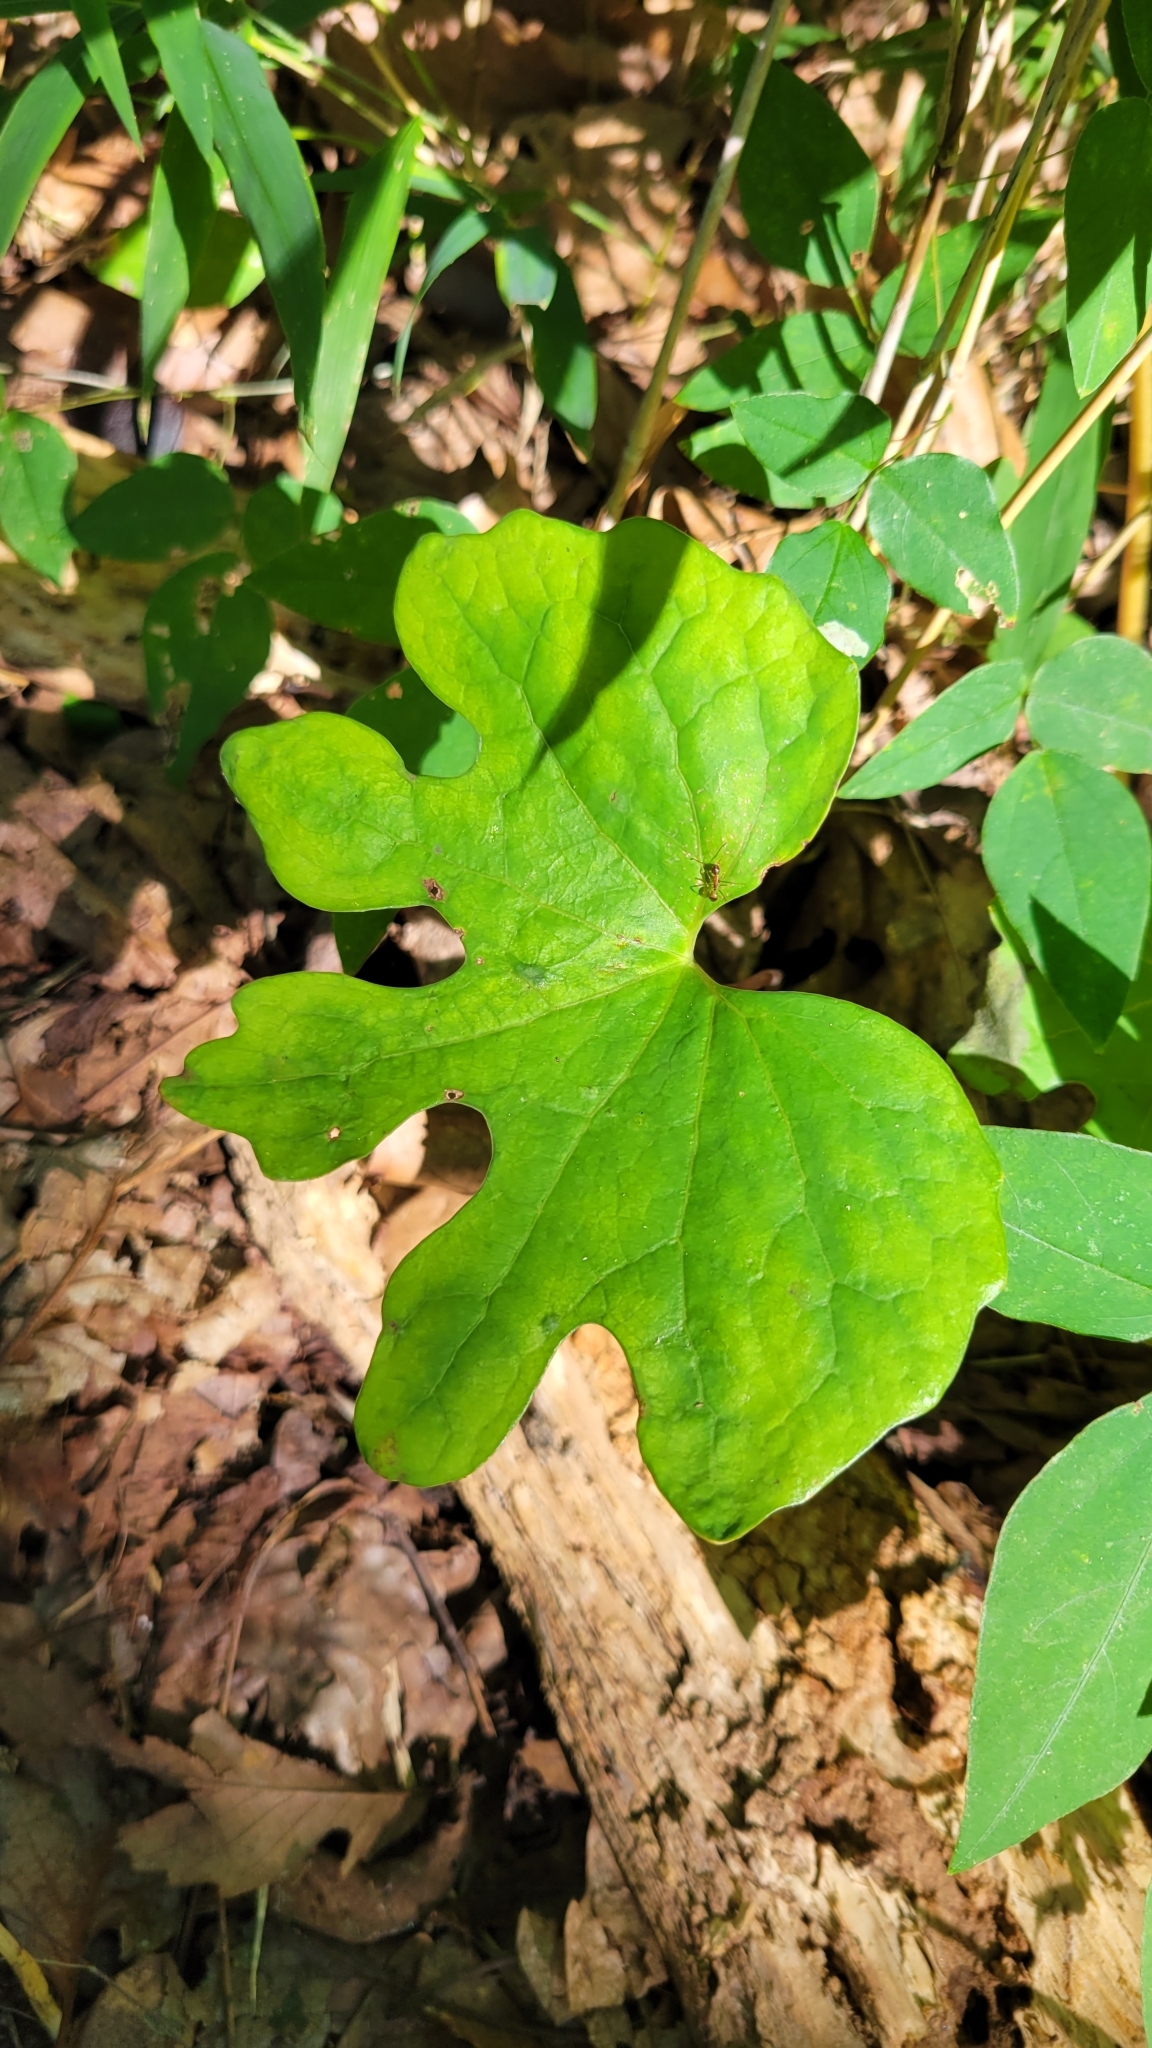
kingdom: Plantae
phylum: Tracheophyta
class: Magnoliopsida
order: Ranunculales
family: Papaveraceae
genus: Sanguinaria
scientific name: Sanguinaria canadensis
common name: Bloodroot
